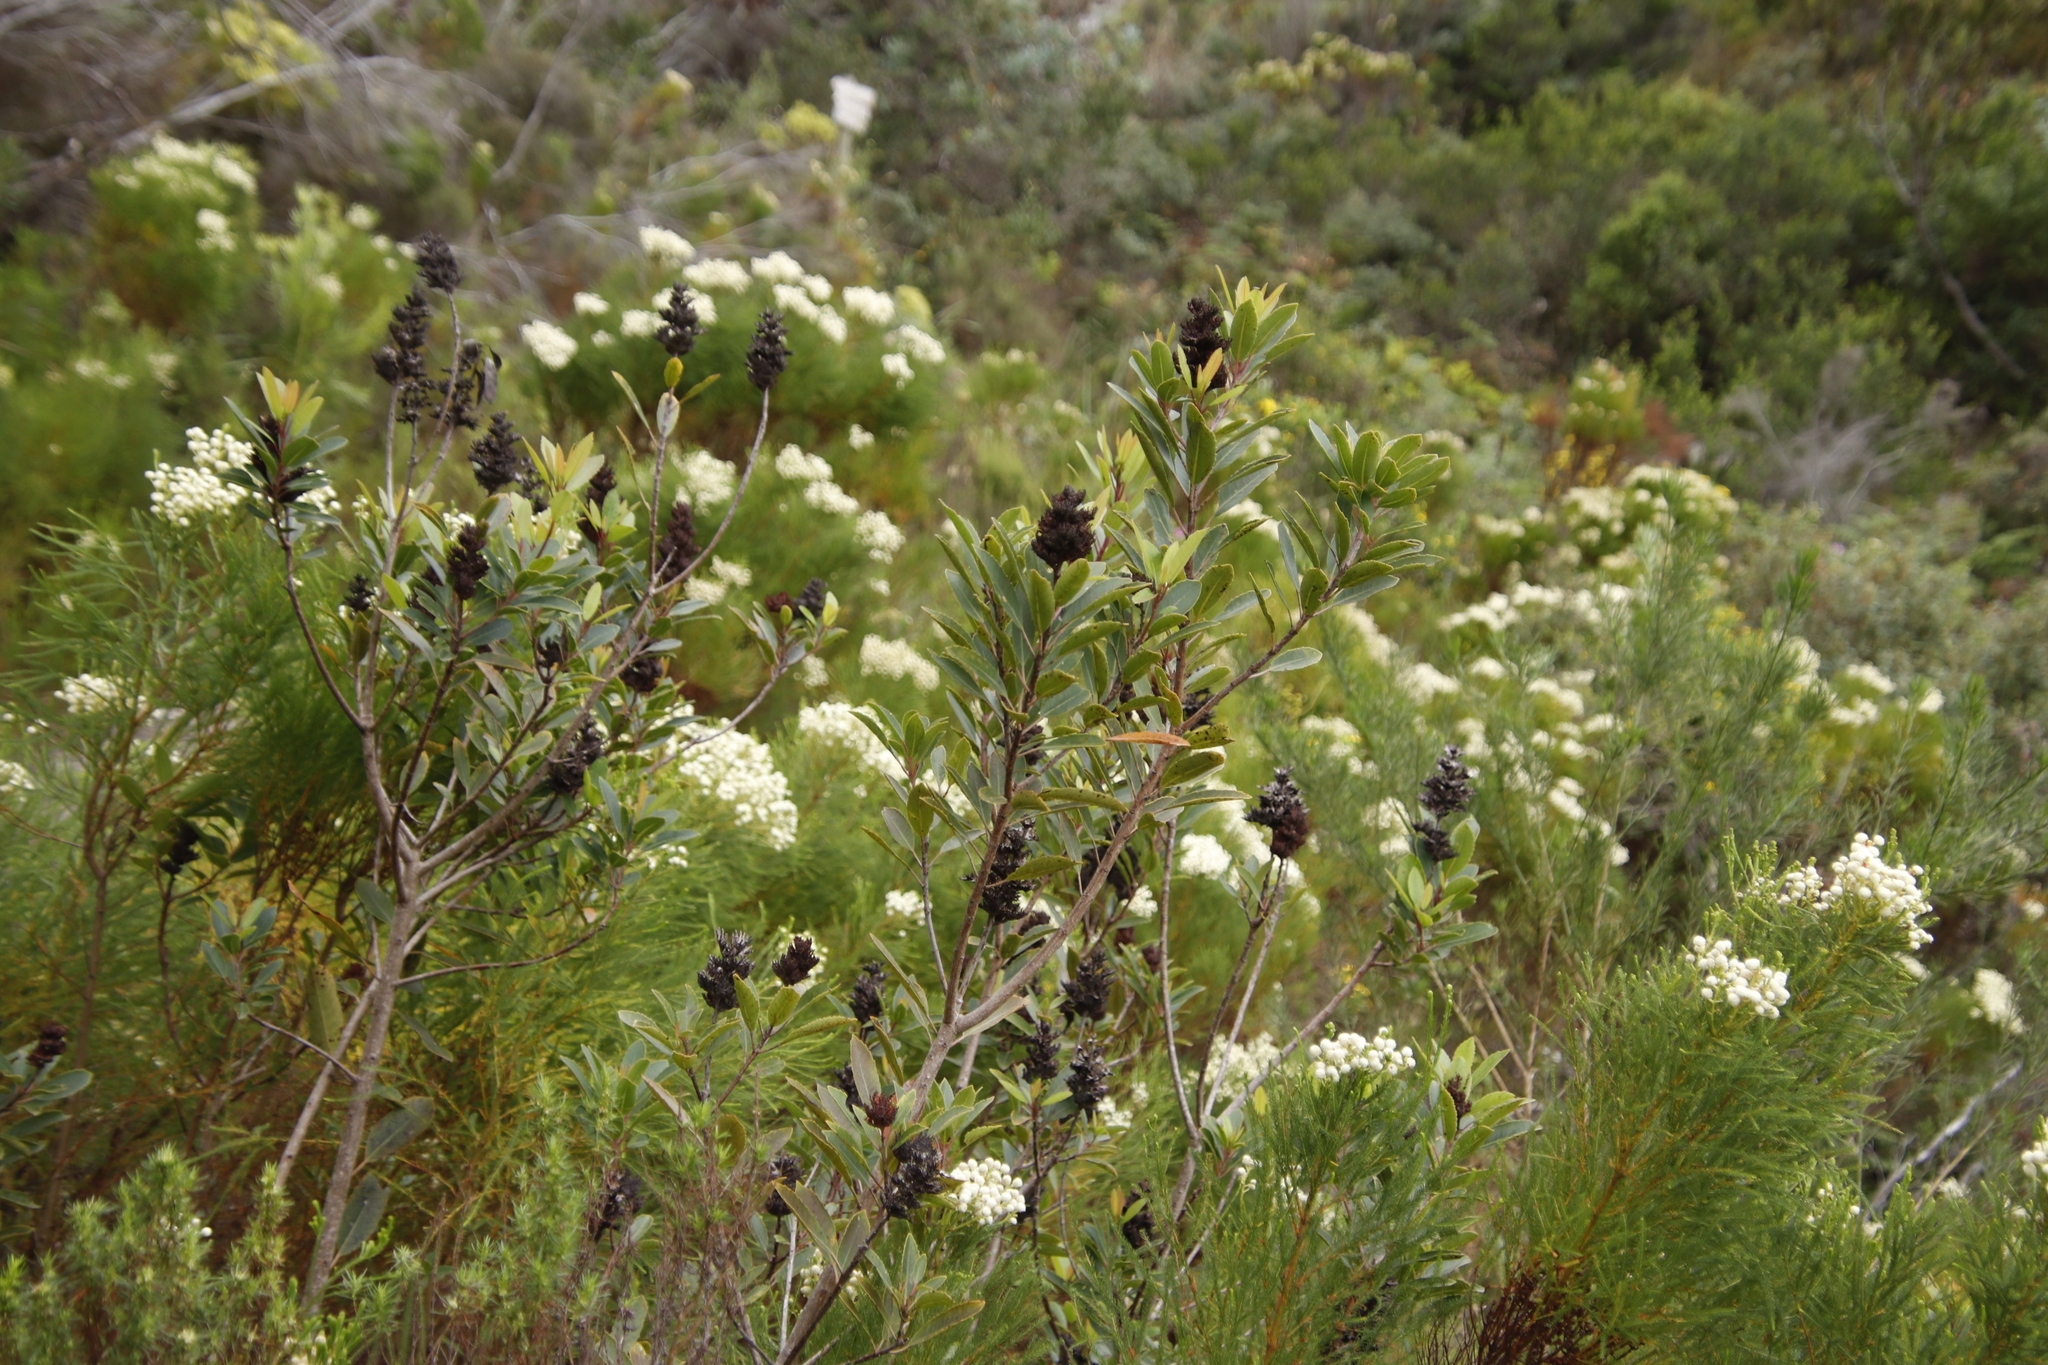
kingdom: Plantae
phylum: Tracheophyta
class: Magnoliopsida
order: Sapindales
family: Anacardiaceae
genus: Laurophyllus
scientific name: Laurophyllus capensis
